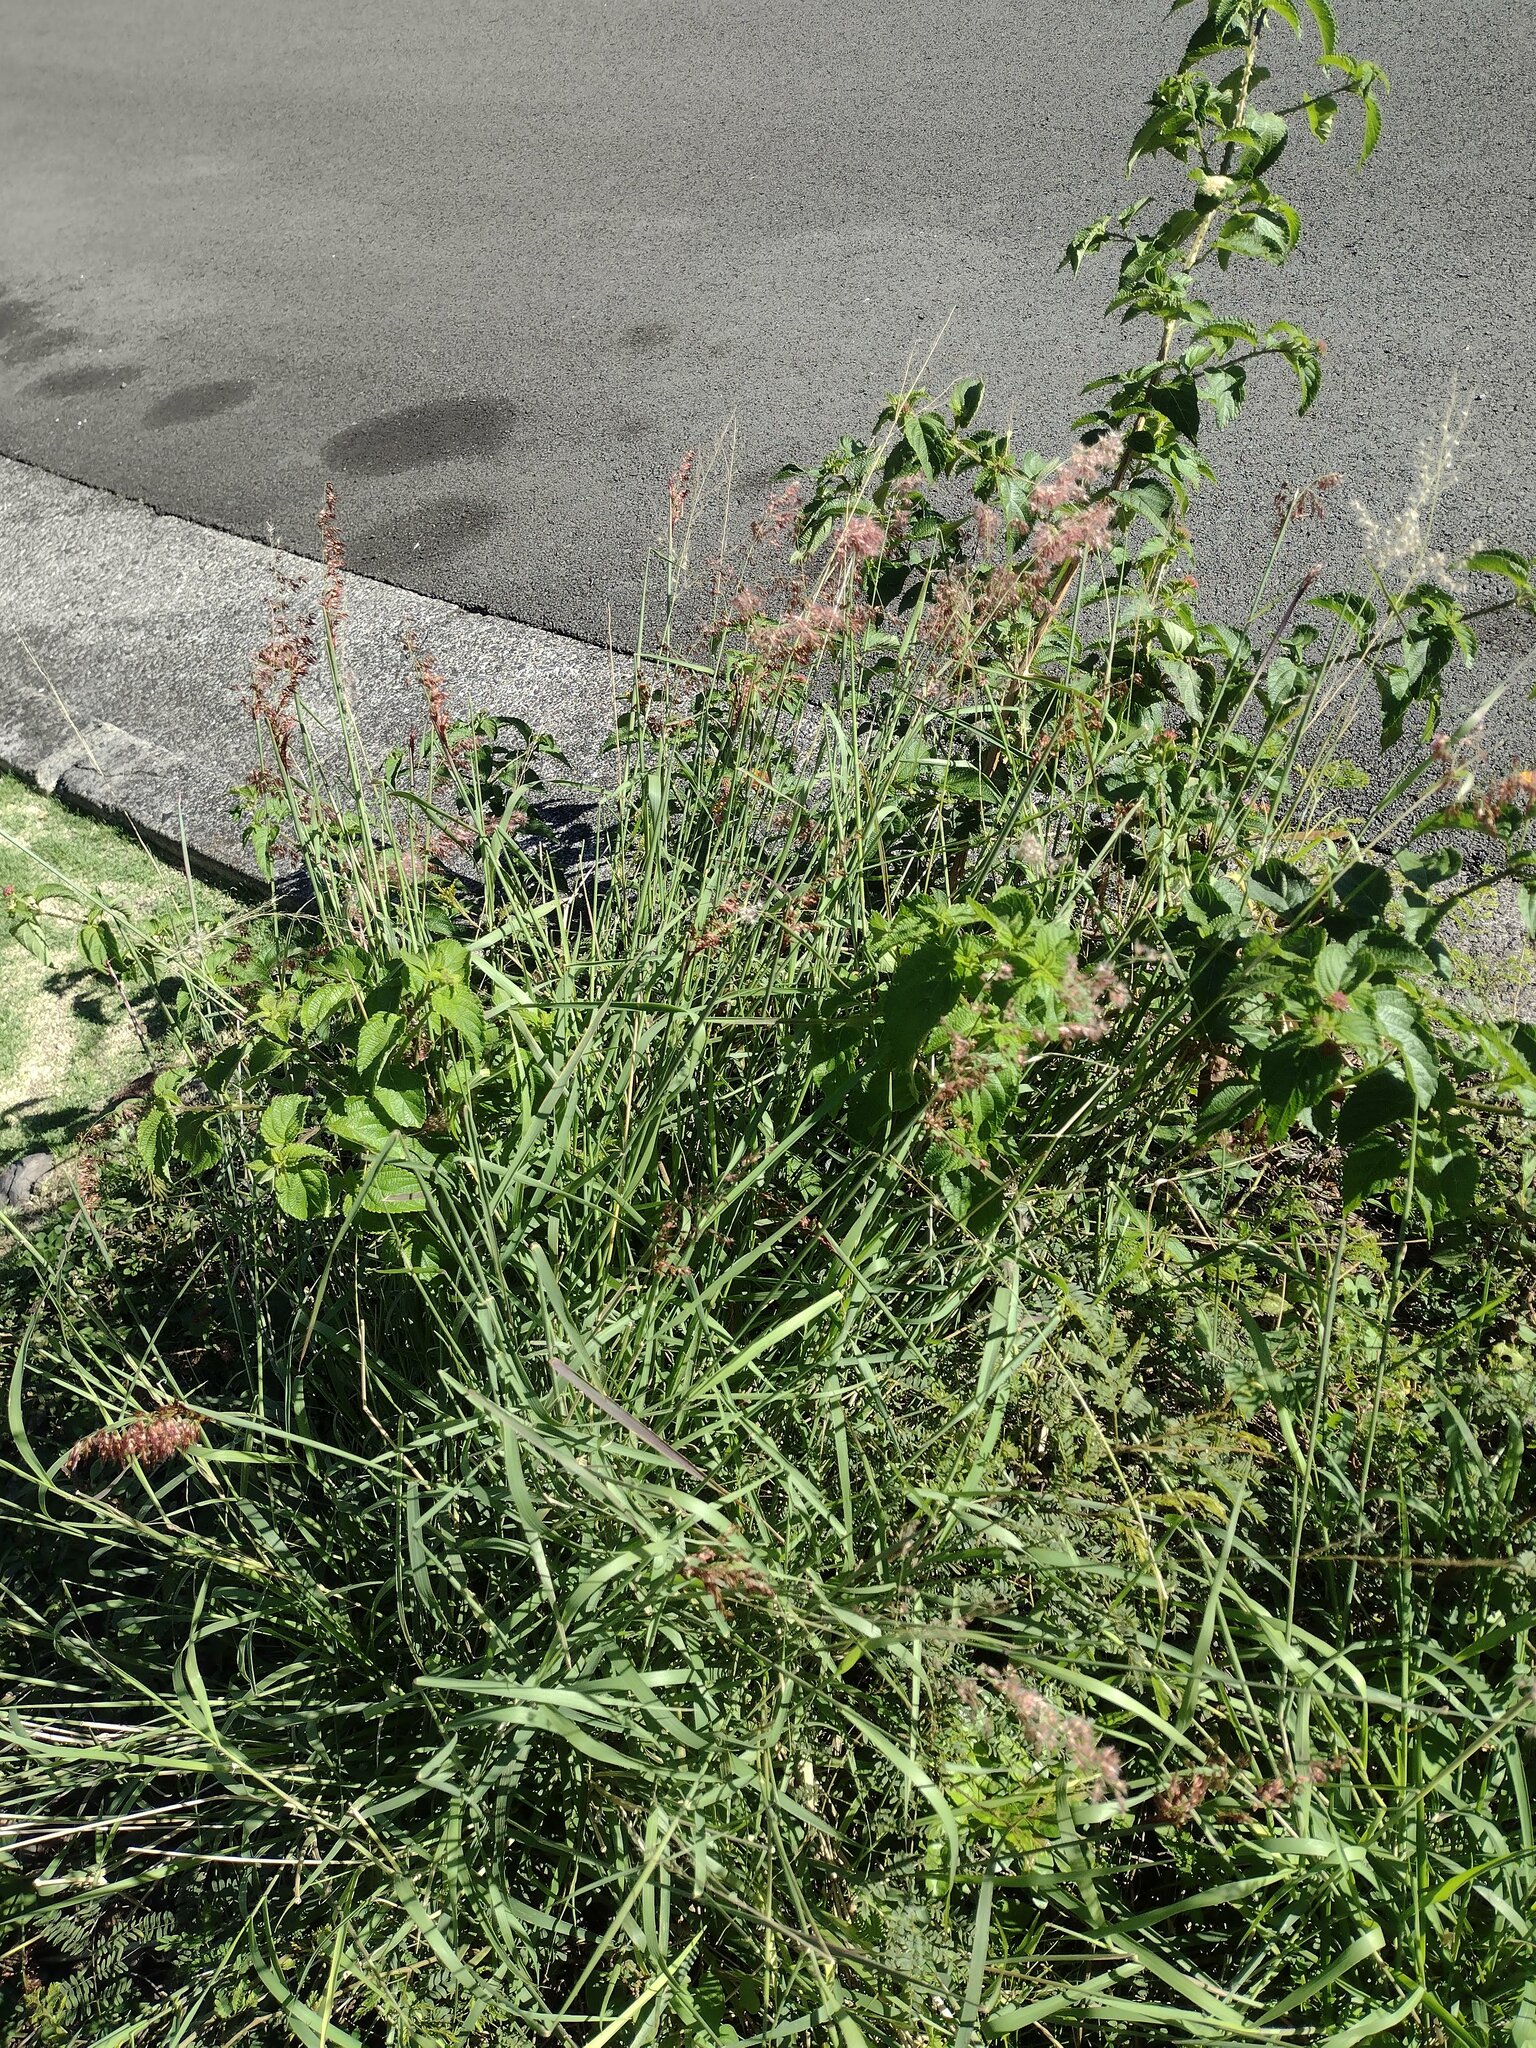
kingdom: Plantae
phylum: Tracheophyta
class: Liliopsida
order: Poales
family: Poaceae
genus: Melinis
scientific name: Melinis repens
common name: Rose natal grass
